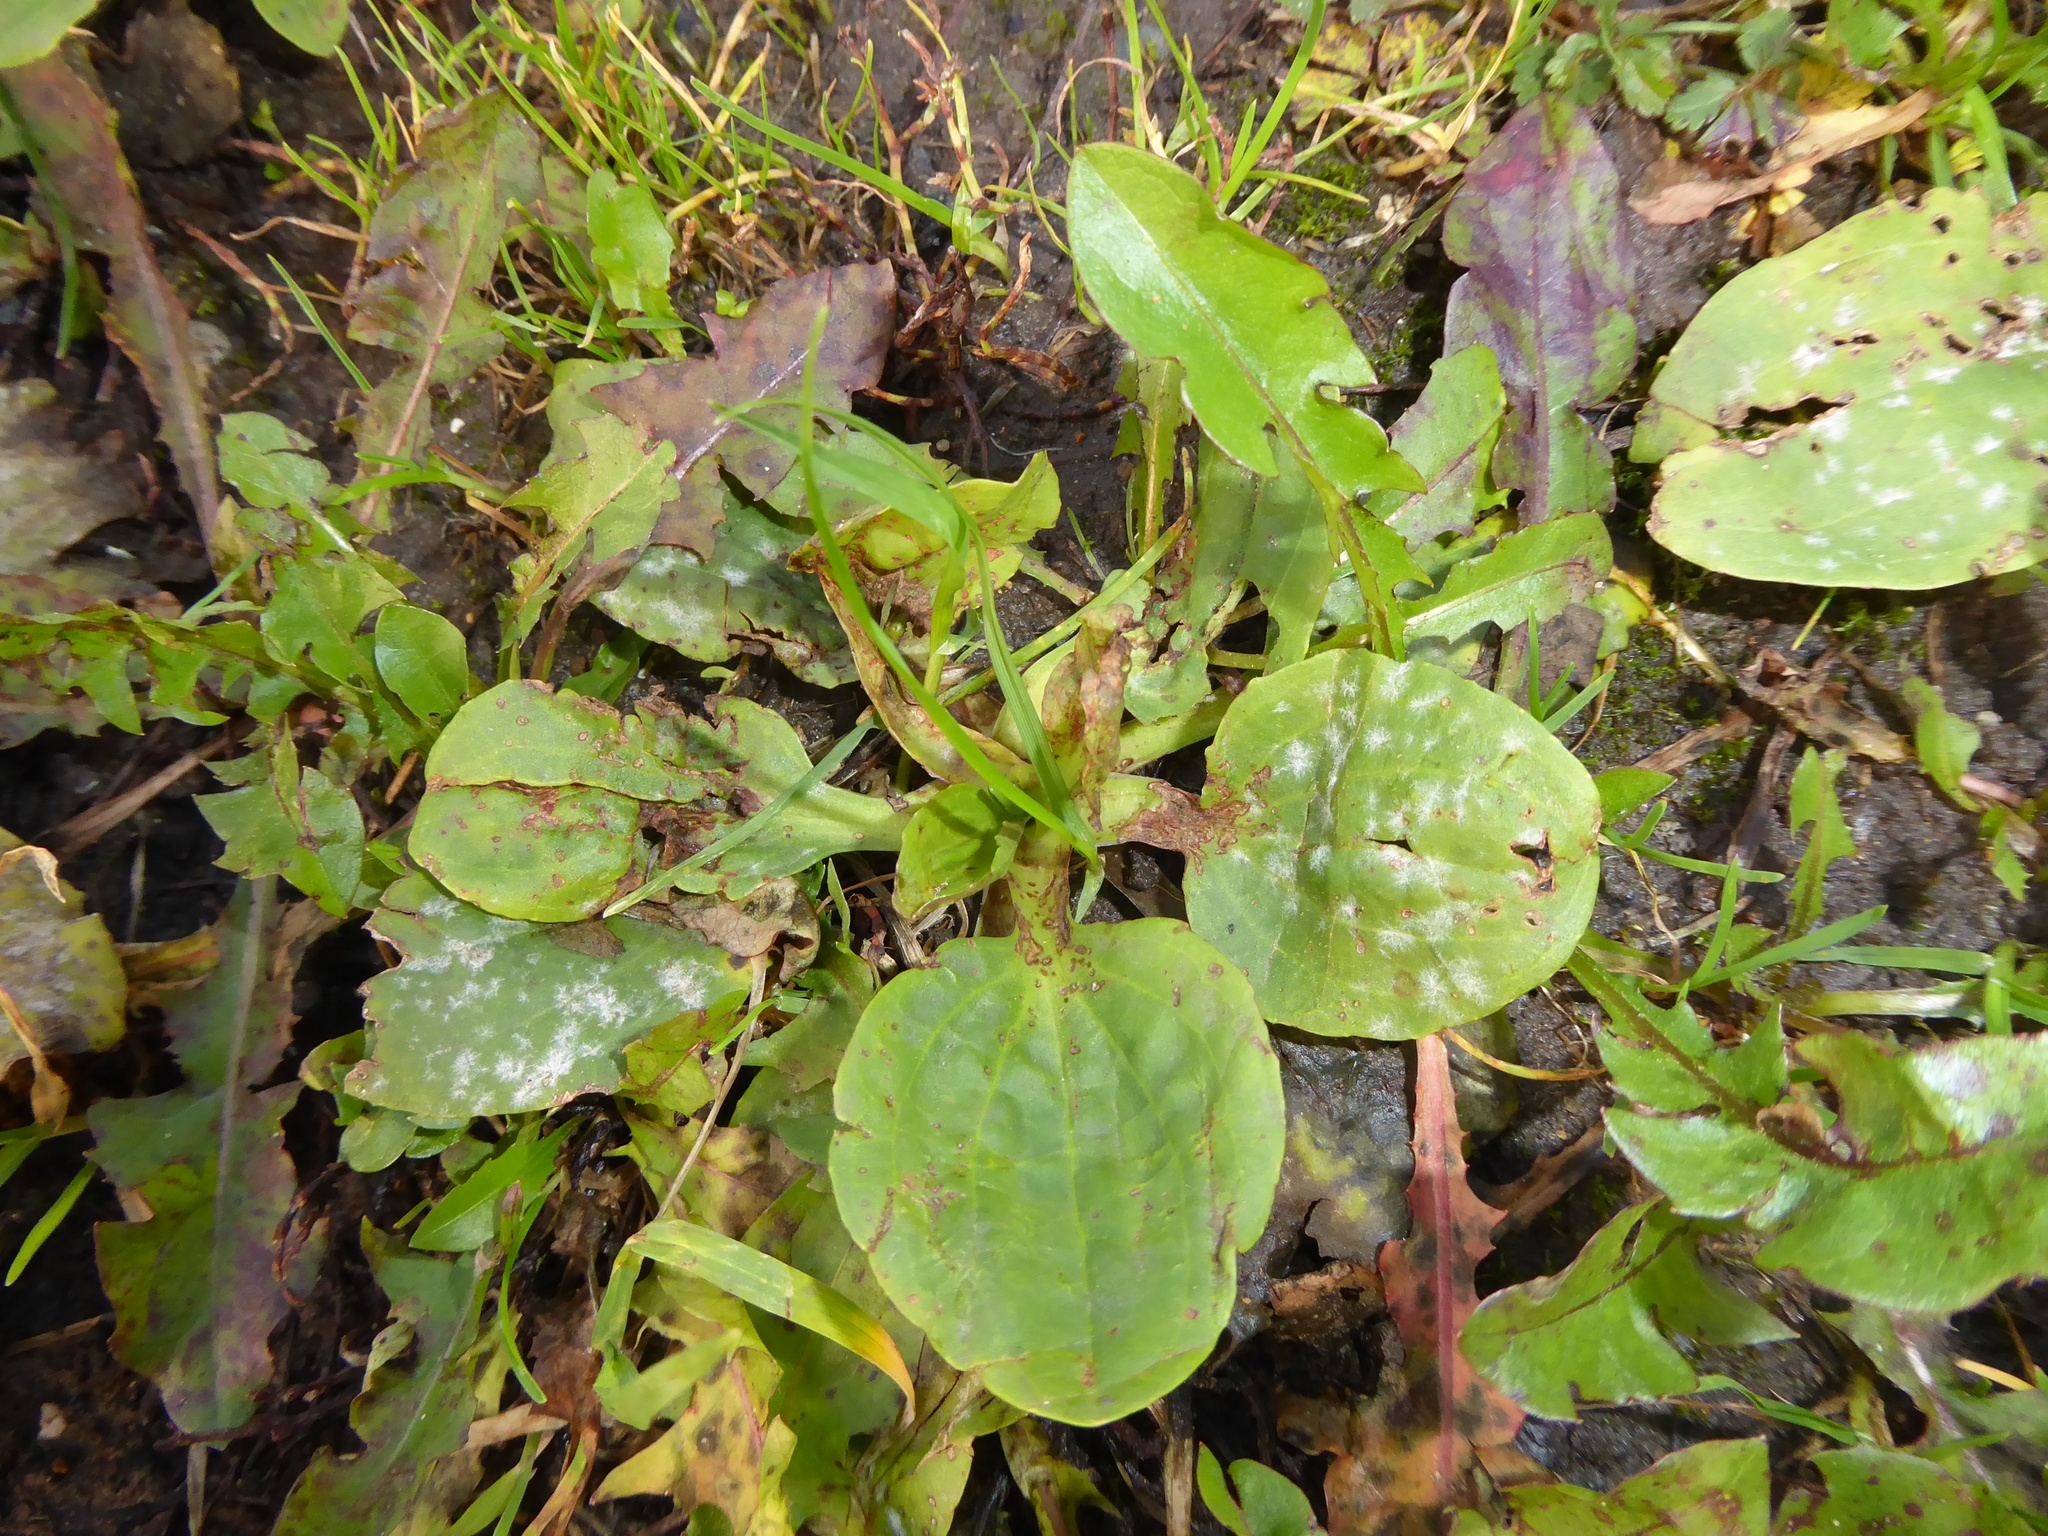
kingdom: Plantae
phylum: Tracheophyta
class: Magnoliopsida
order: Lamiales
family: Plantaginaceae
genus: Plantago
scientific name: Plantago major
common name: Common plantain
